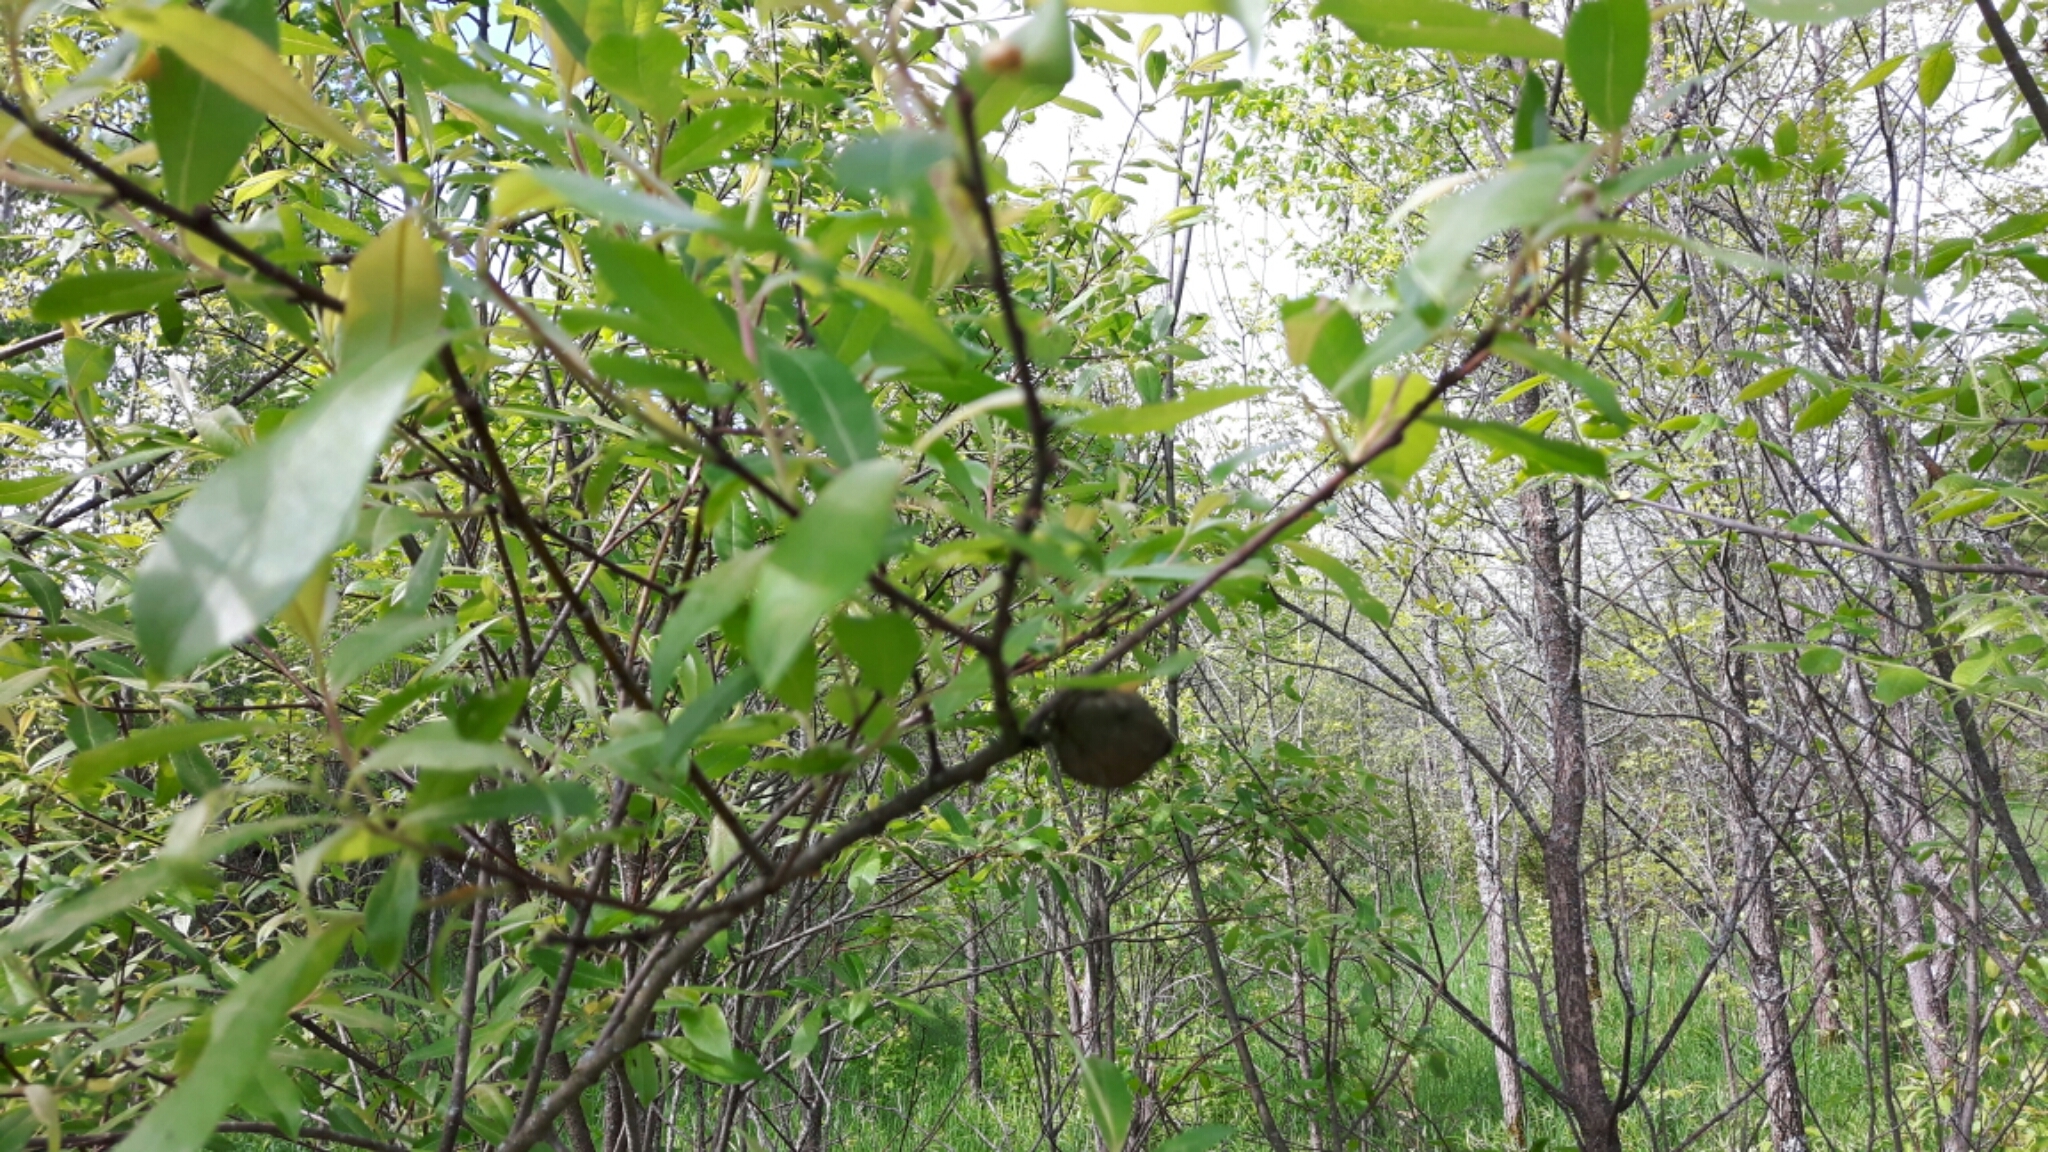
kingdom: Animalia
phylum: Arthropoda
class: Insecta
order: Diptera
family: Cecidomyiidae
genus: Rabdophaga
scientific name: Rabdophaga strobiloides
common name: Willow pinecone gall midge
